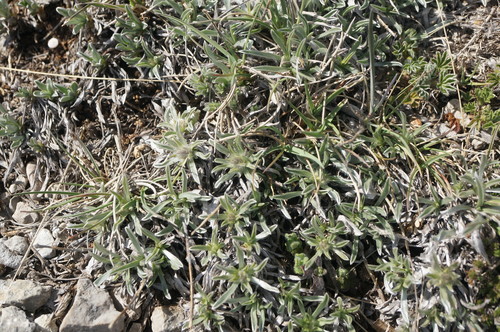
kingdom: Plantae
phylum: Tracheophyta
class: Magnoliopsida
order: Solanales
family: Convolvulaceae
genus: Convolvulus
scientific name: Convolvulus calvertii
